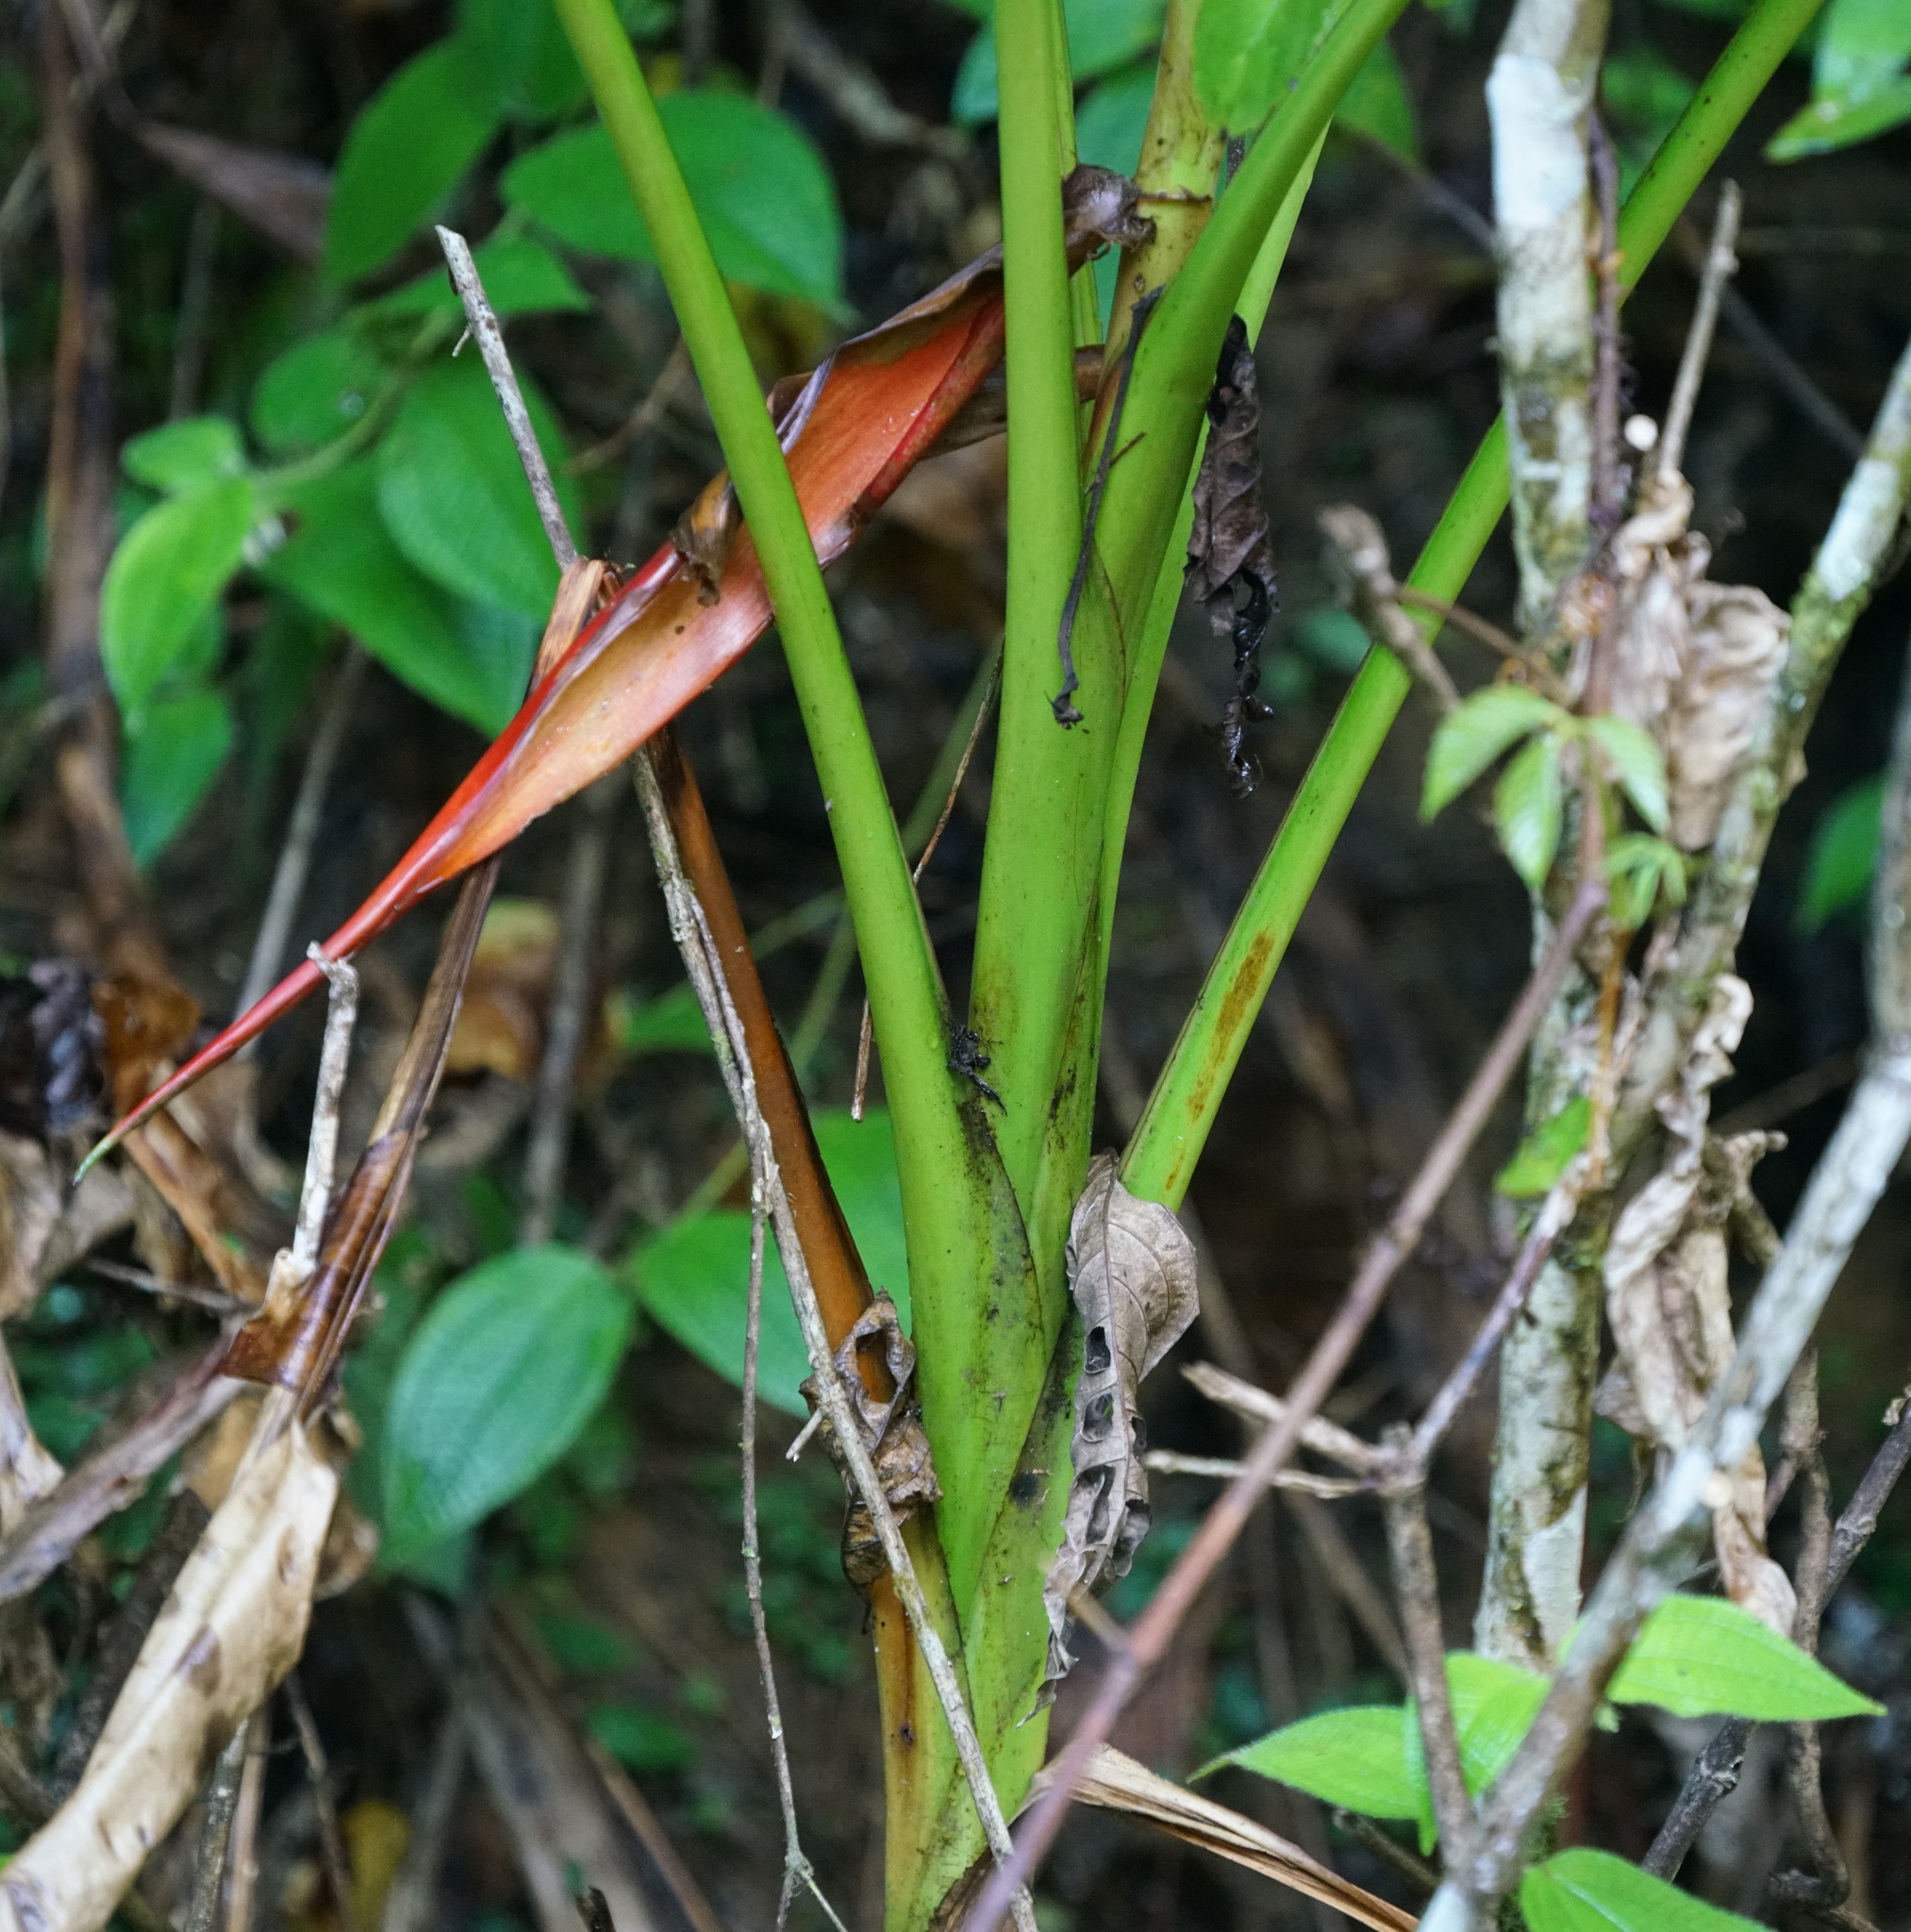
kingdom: Plantae
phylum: Tracheophyta
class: Liliopsida
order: Zingiberales
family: Musaceae
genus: Musa
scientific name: Musa beccarii
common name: Pisang tajak
